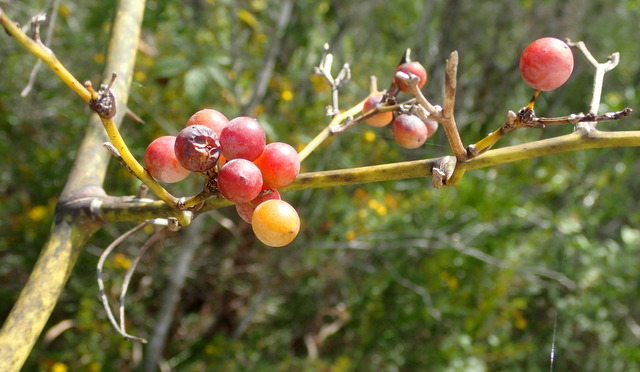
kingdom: Plantae
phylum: Tracheophyta
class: Liliopsida
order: Liliales
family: Smilacaceae
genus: Smilax
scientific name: Smilax laurifolia
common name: Bamboovine
